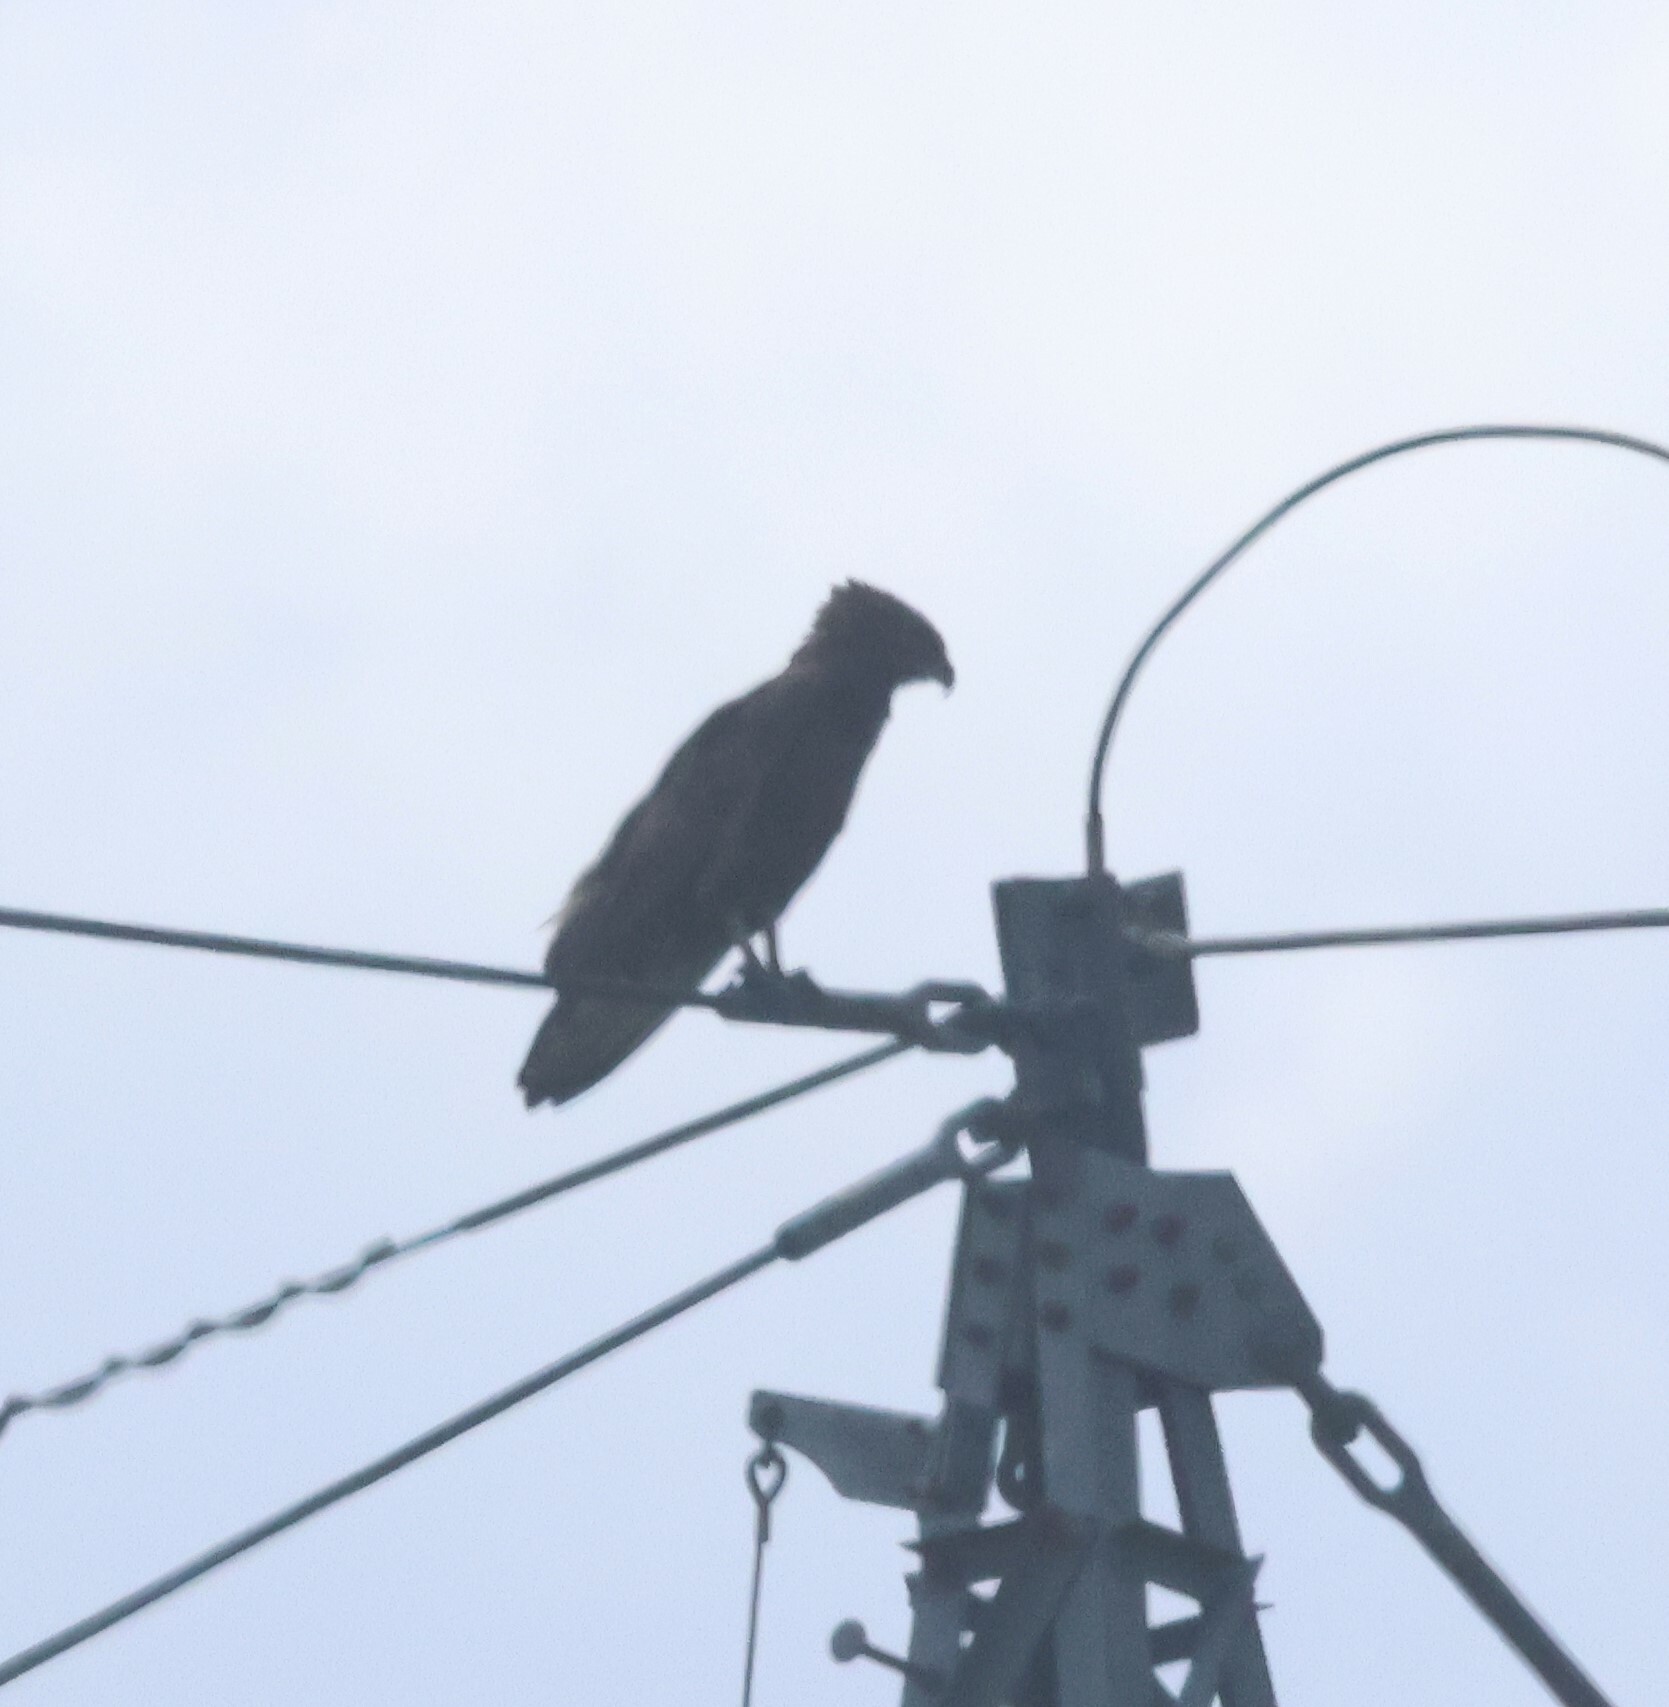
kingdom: Animalia
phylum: Chordata
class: Aves
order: Accipitriformes
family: Accipitridae
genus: Circaetus
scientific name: Circaetus cinereus
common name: Brown snake eagle
